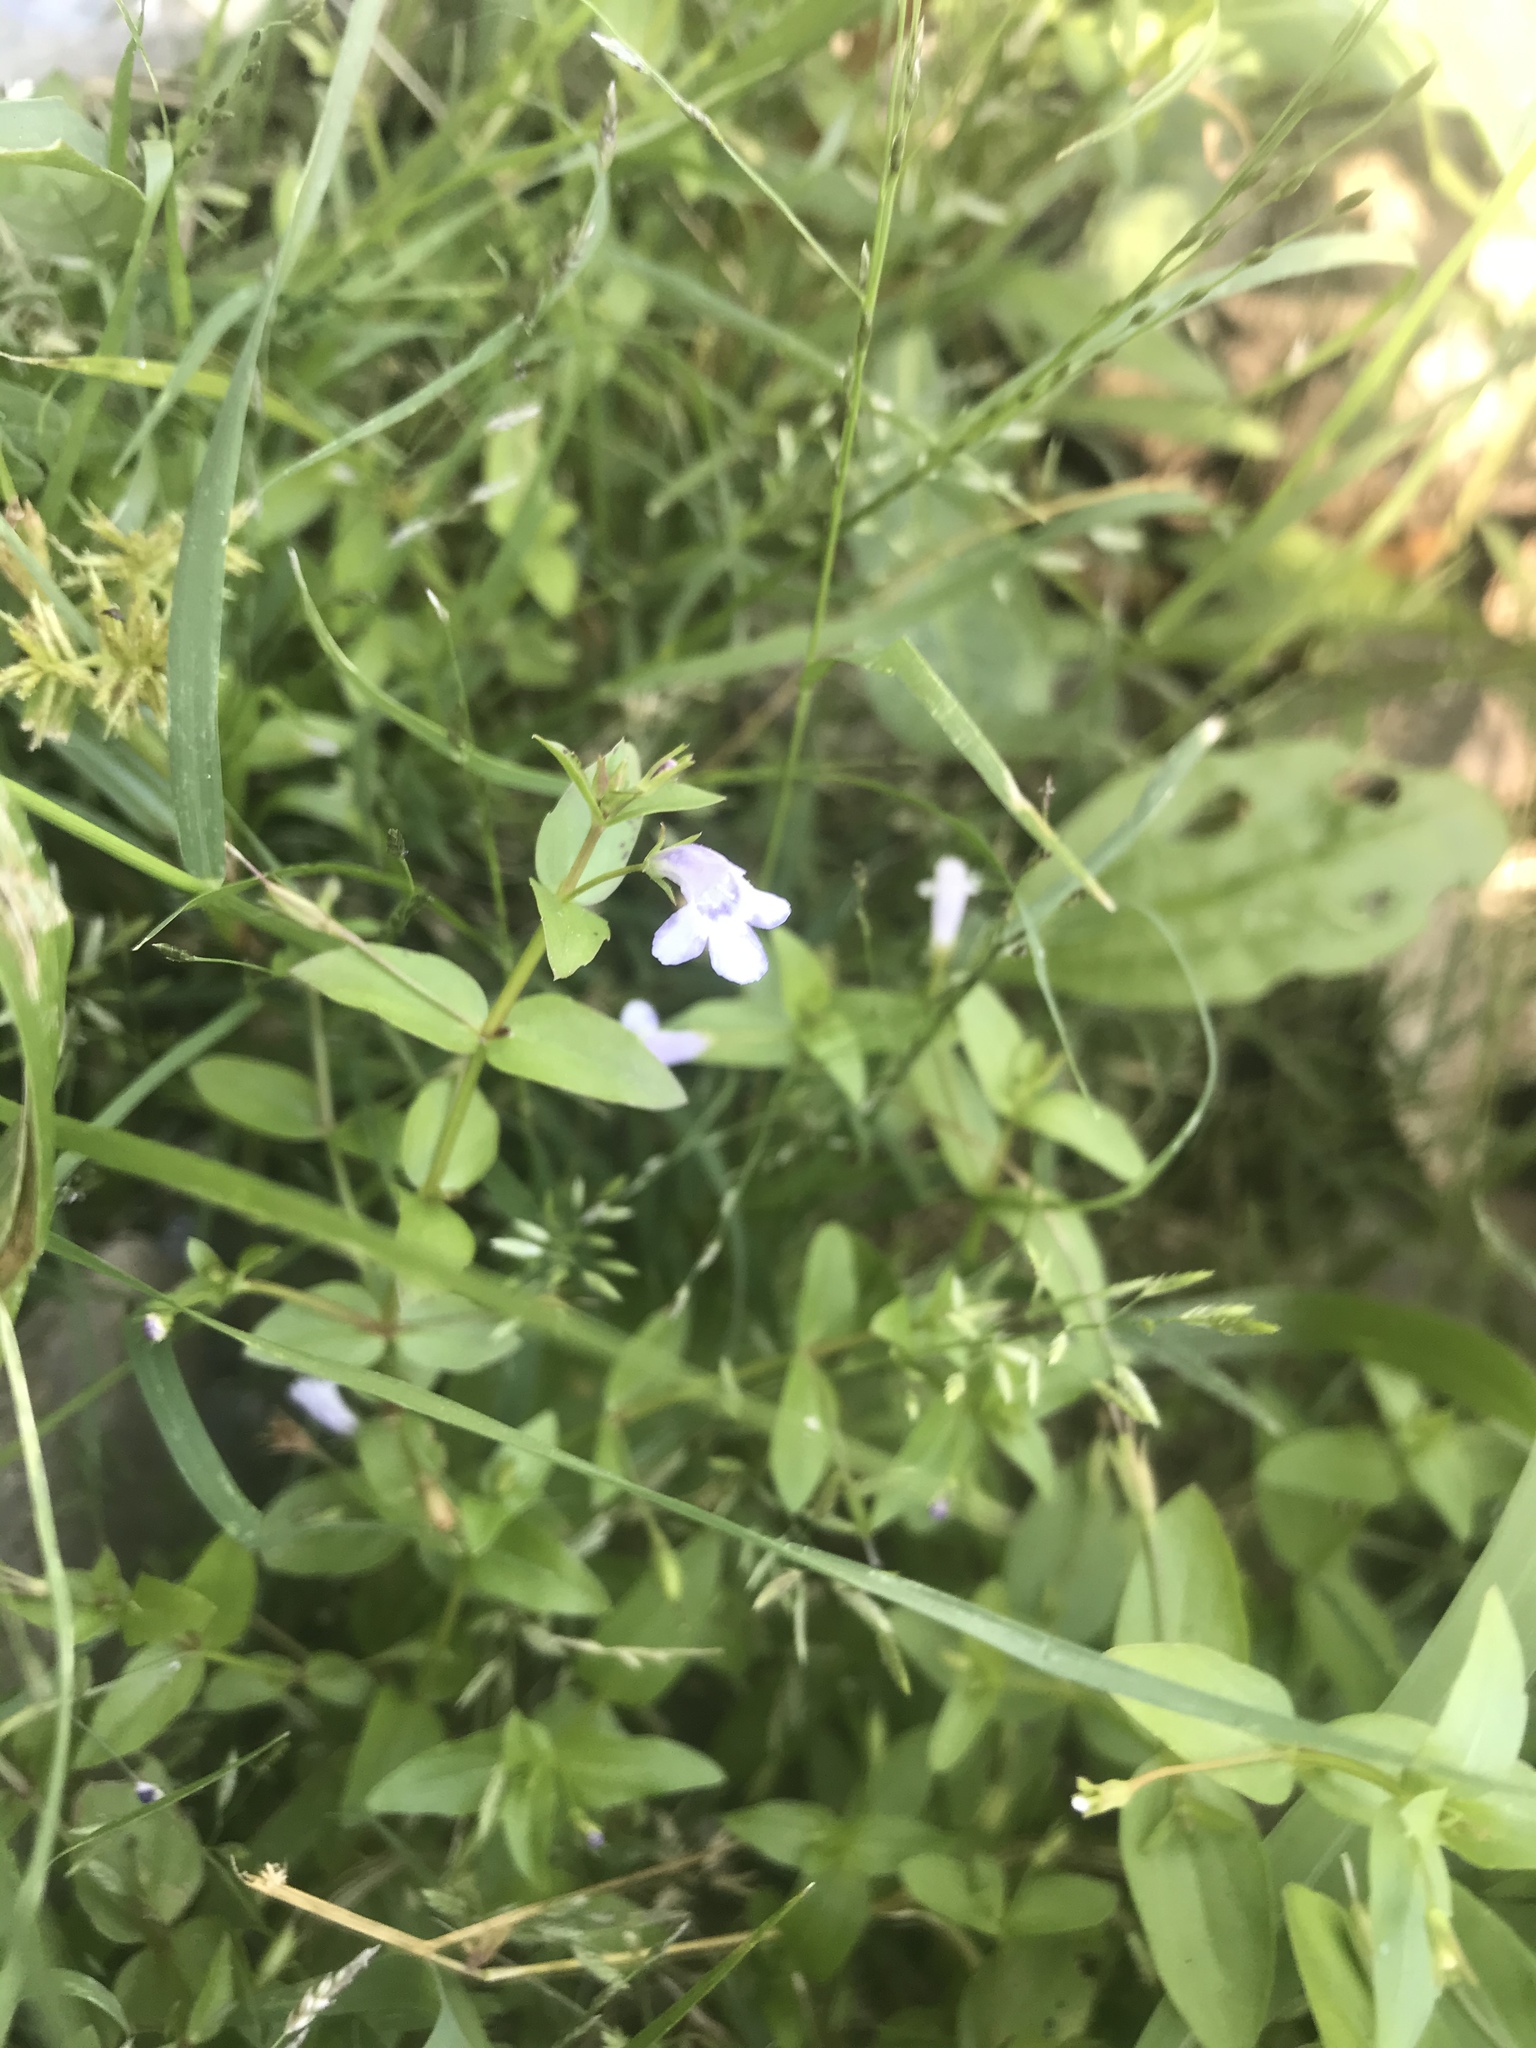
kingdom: Plantae
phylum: Tracheophyta
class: Magnoliopsida
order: Lamiales
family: Linderniaceae
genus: Lindernia
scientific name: Lindernia dubia
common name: Annual false pimpernel
